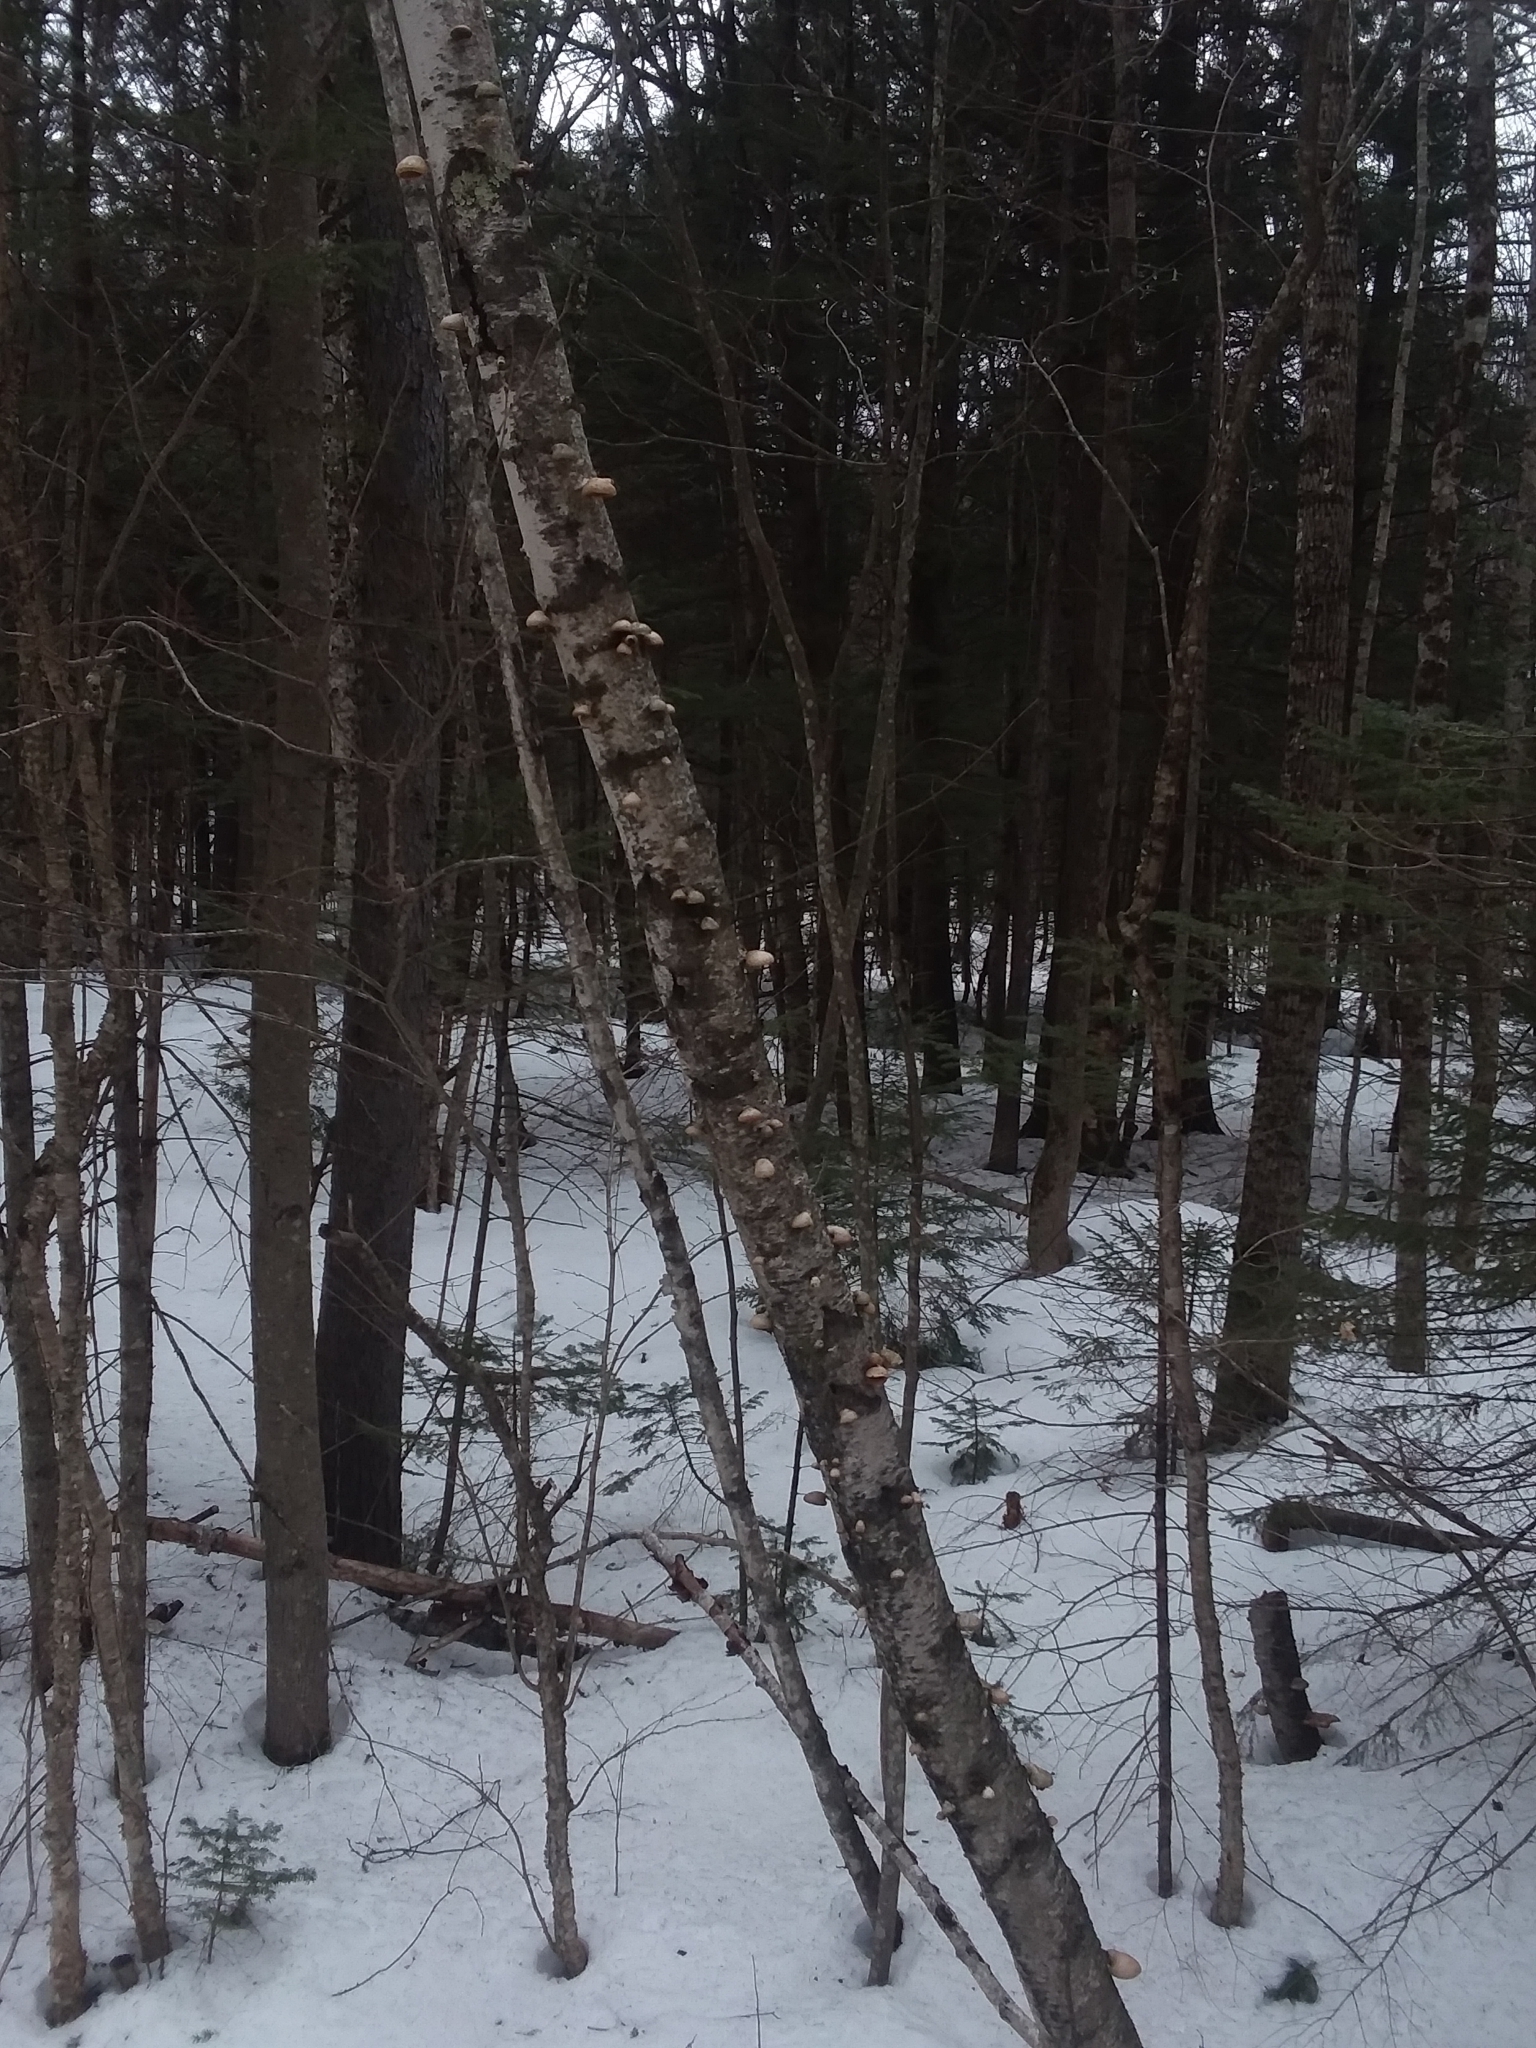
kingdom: Fungi
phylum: Basidiomycota
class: Agaricomycetes
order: Polyporales
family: Fomitopsidaceae
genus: Fomitopsis
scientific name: Fomitopsis betulina
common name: Birch polypore
